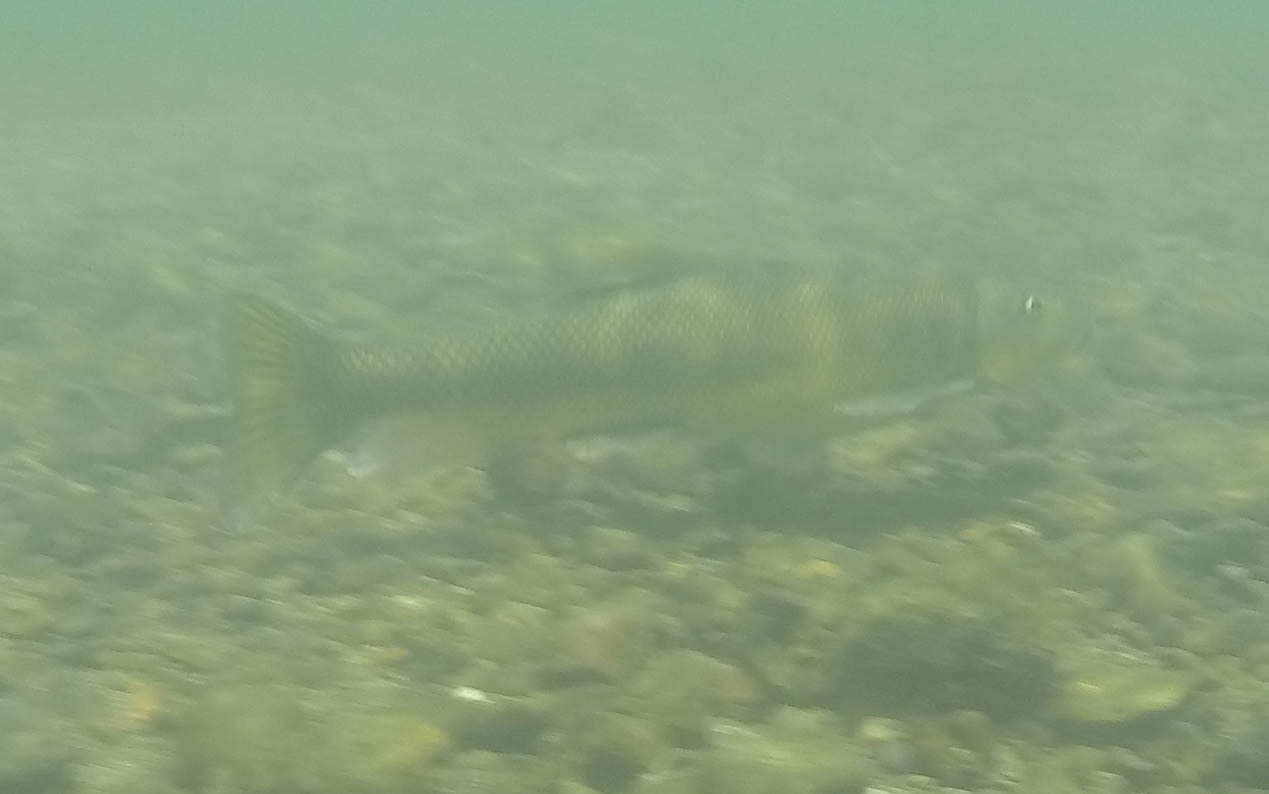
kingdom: Animalia
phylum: Chordata
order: Cypriniformes
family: Catostomidae
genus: Catostomus
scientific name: Catostomus occidentalis
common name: Goose lake sucker
